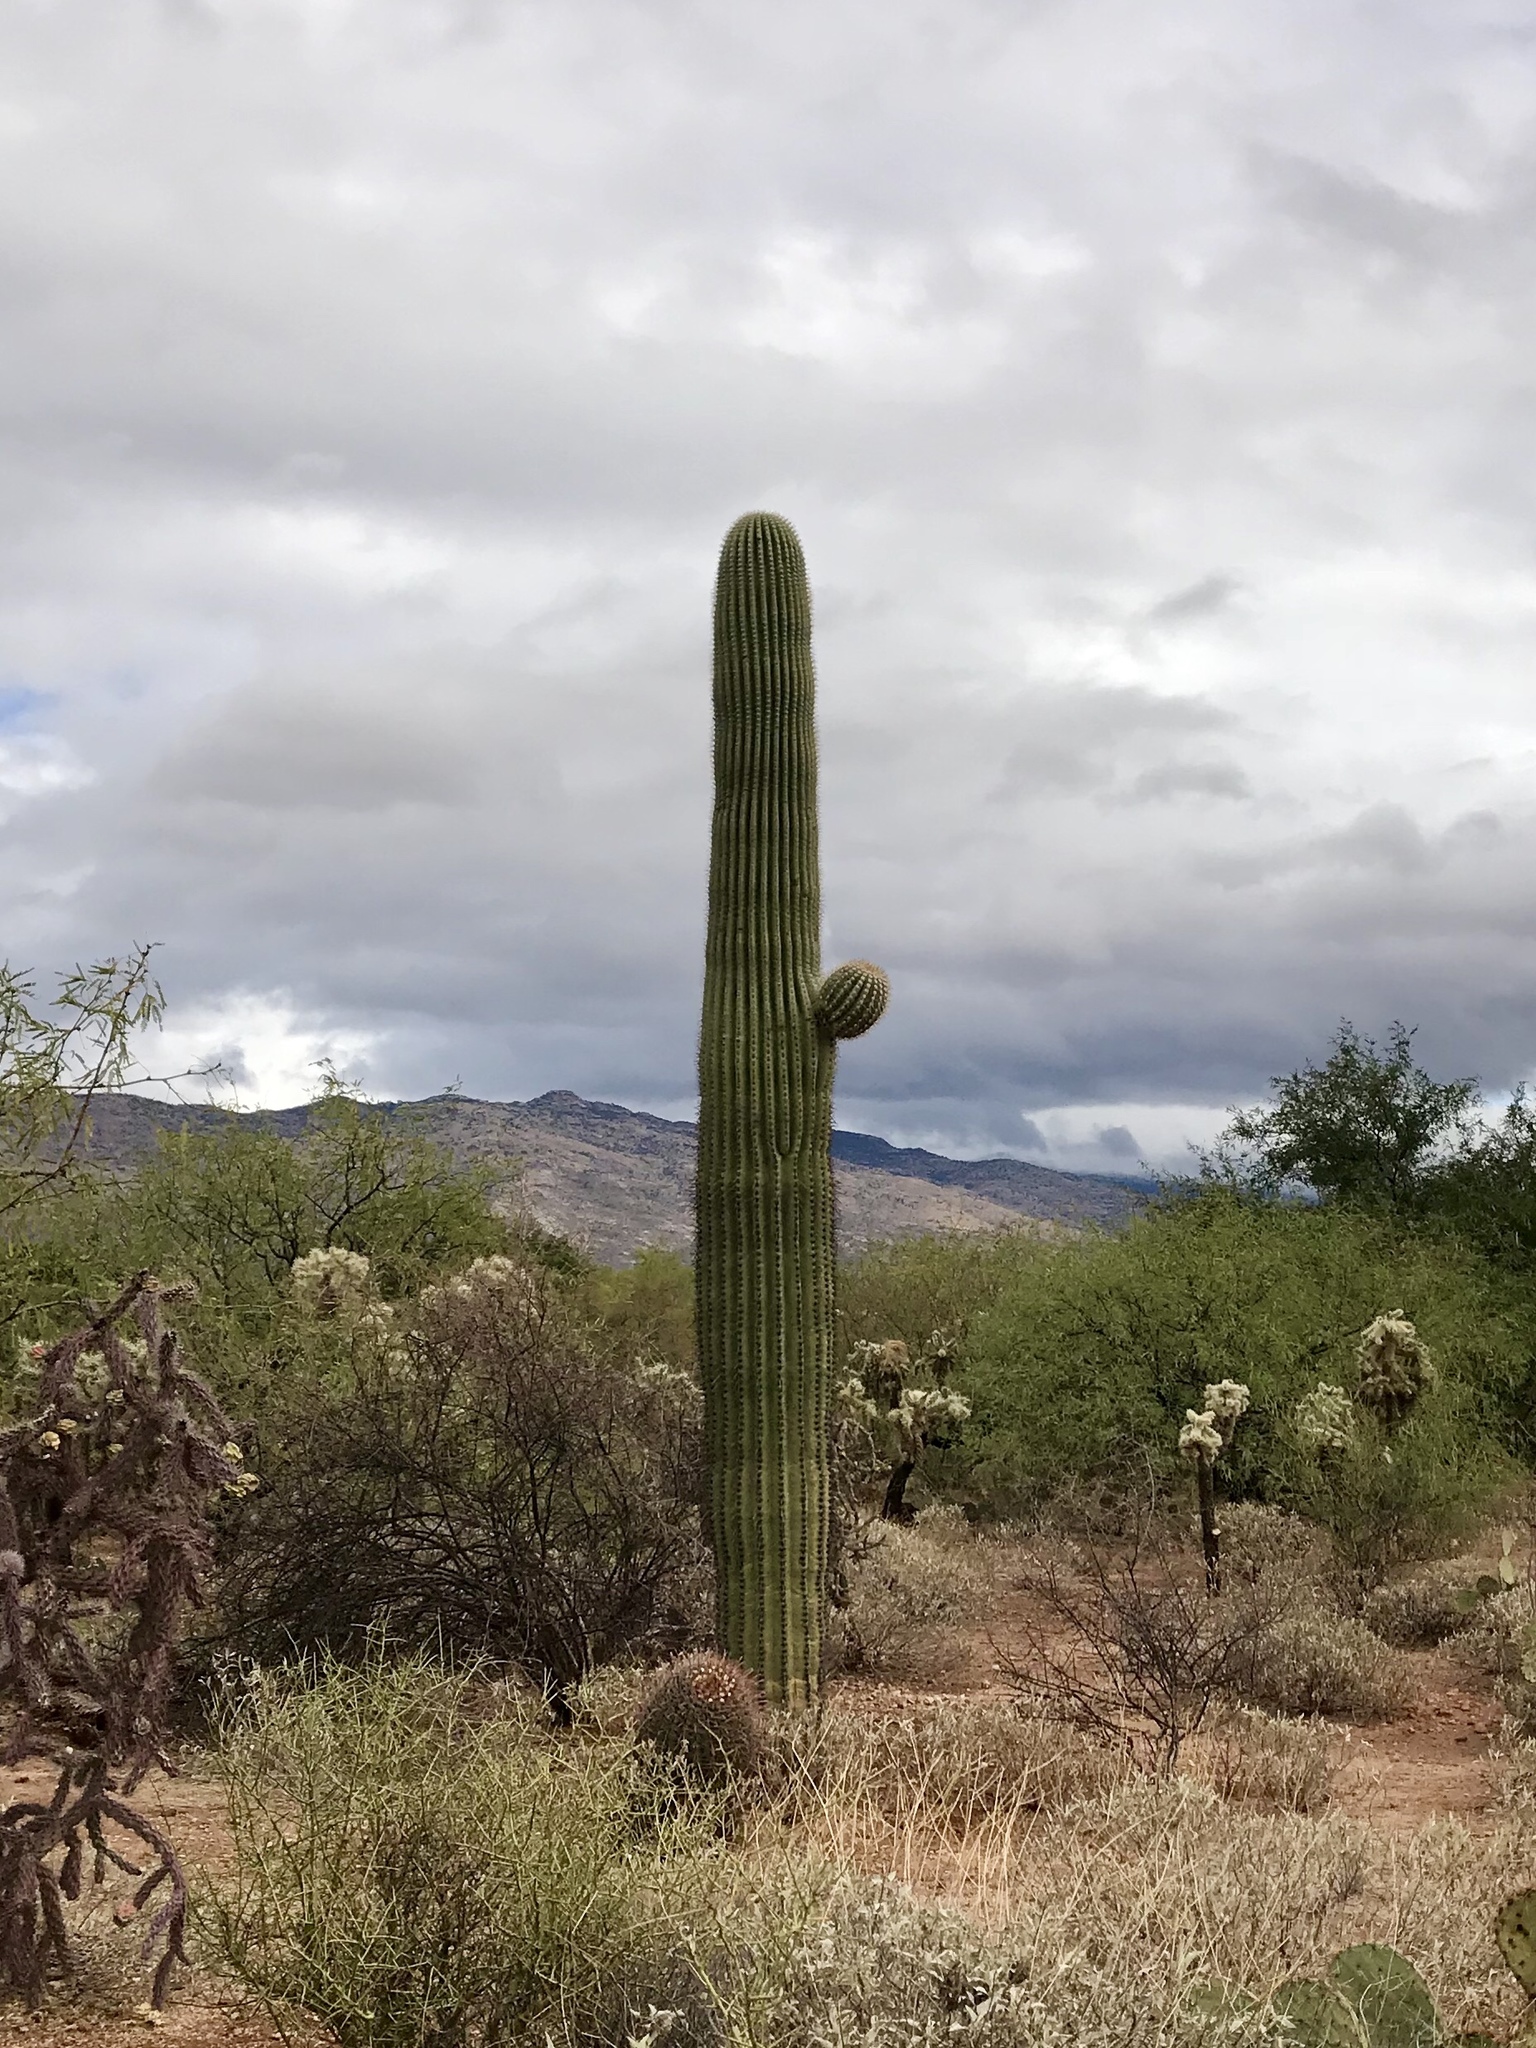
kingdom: Plantae
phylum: Tracheophyta
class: Magnoliopsida
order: Caryophyllales
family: Cactaceae
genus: Carnegiea
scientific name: Carnegiea gigantea
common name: Saguaro
